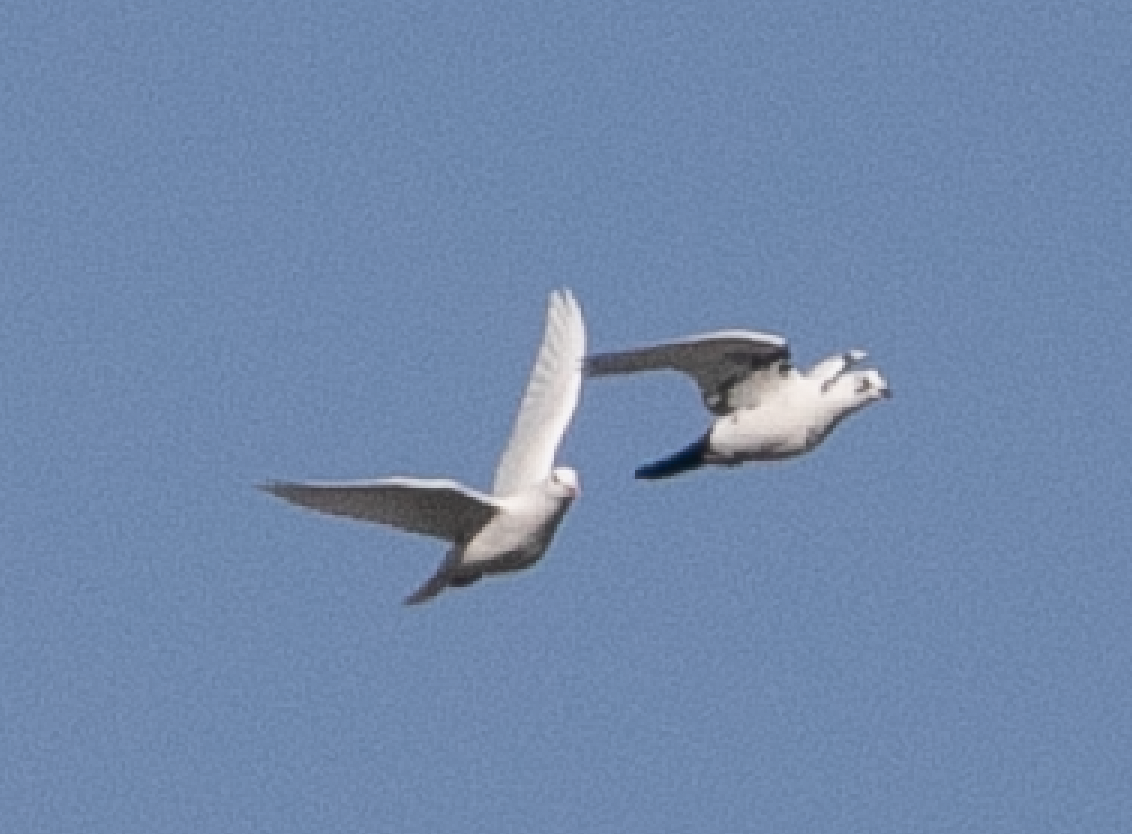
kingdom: Animalia
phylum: Chordata
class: Aves
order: Columbiformes
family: Columbidae
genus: Columba
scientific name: Columba livia
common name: Rock pigeon
